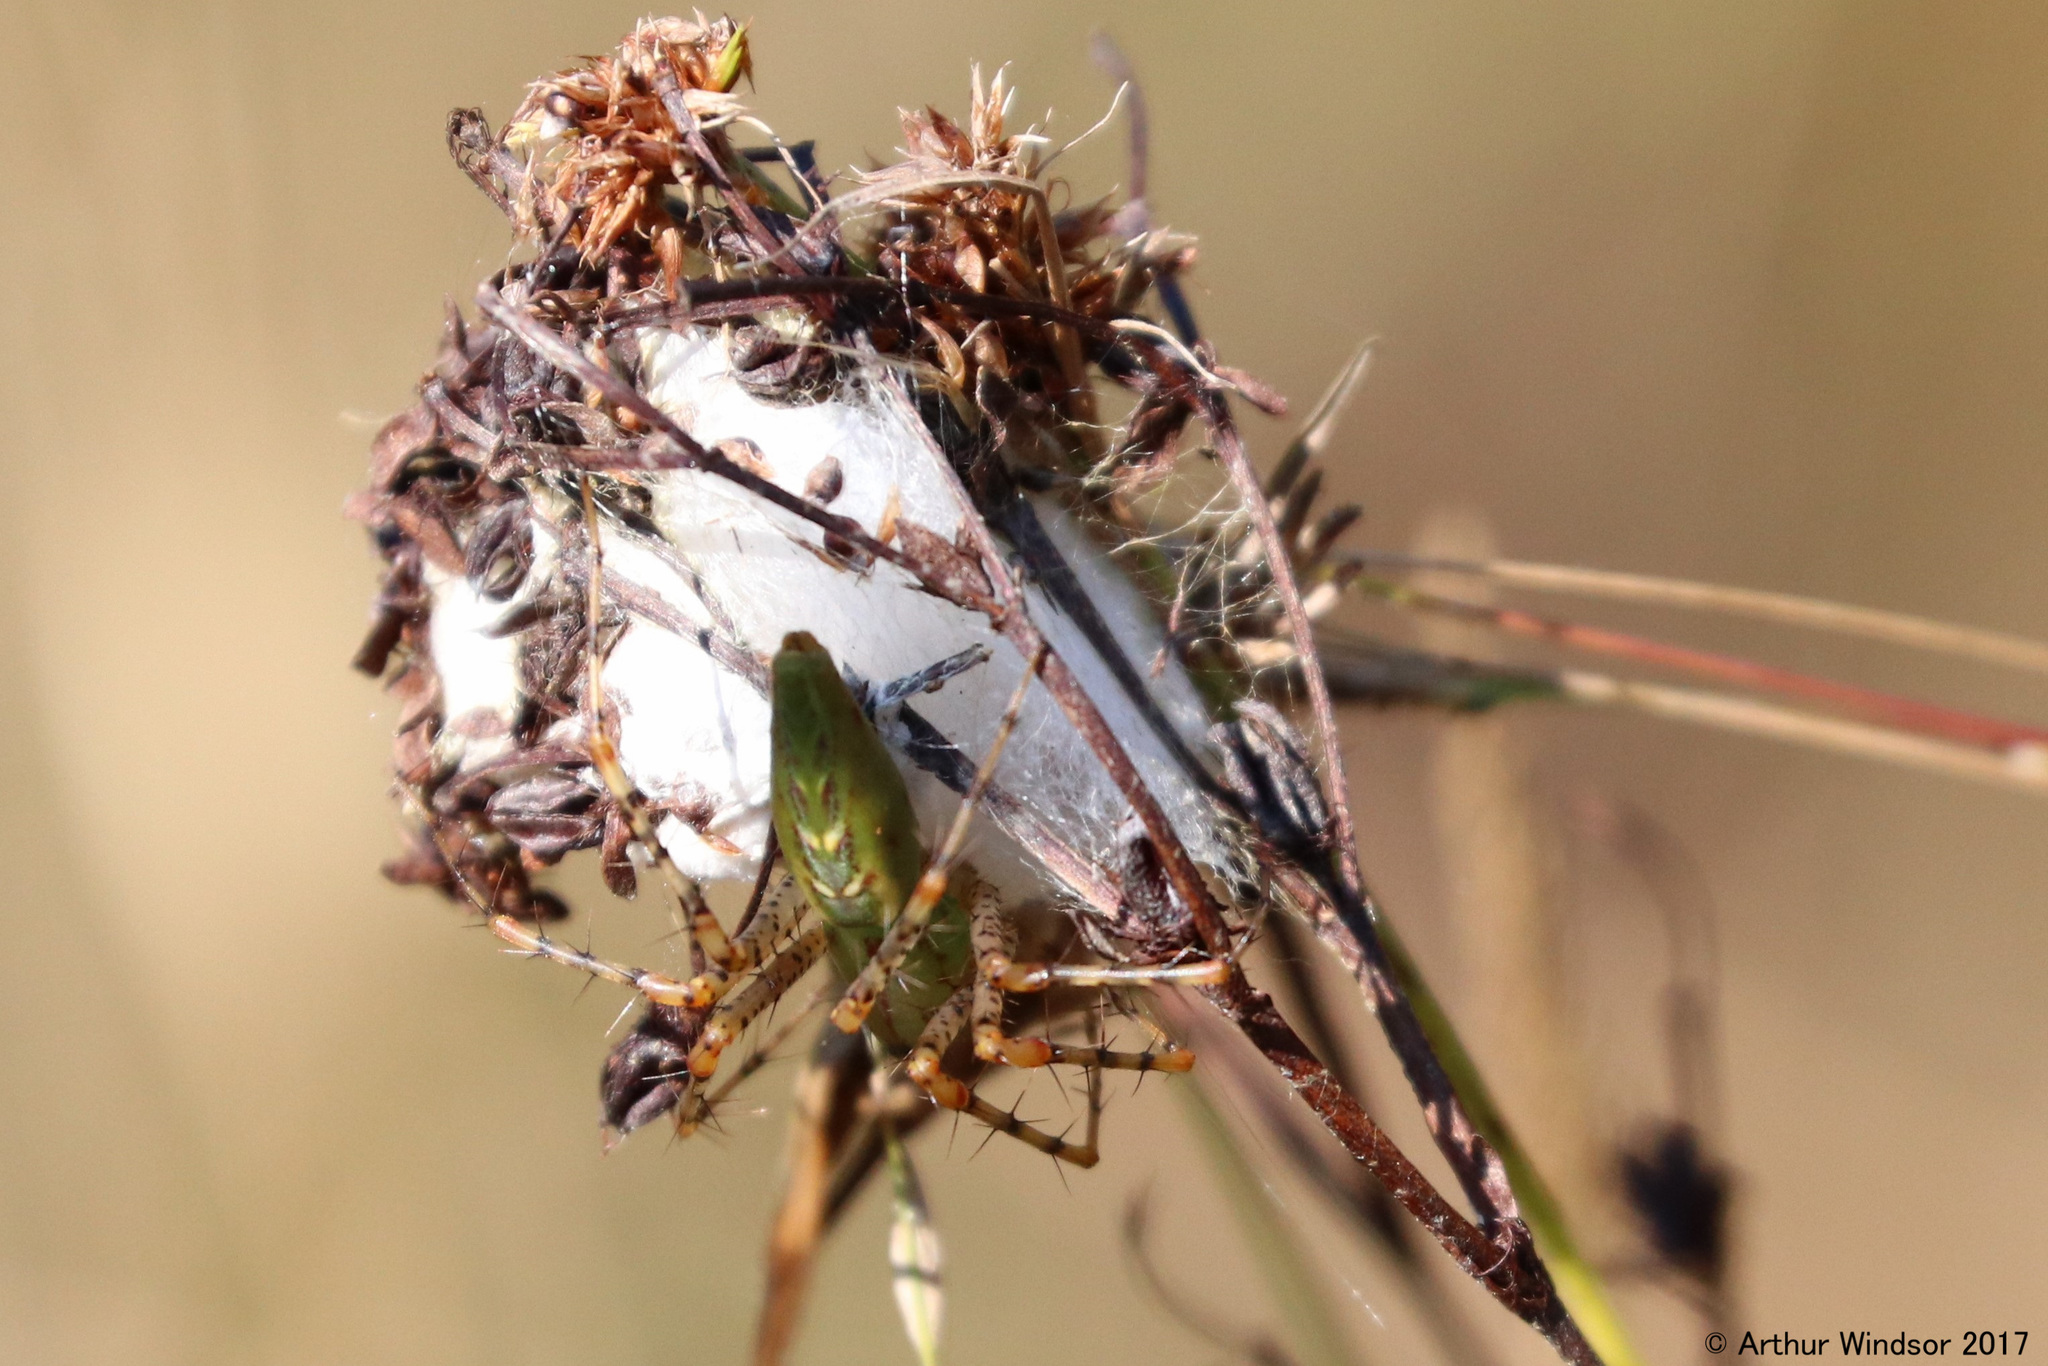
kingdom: Animalia
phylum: Arthropoda
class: Arachnida
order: Araneae
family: Oxyopidae
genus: Peucetia
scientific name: Peucetia viridans
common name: Lynx spiders
